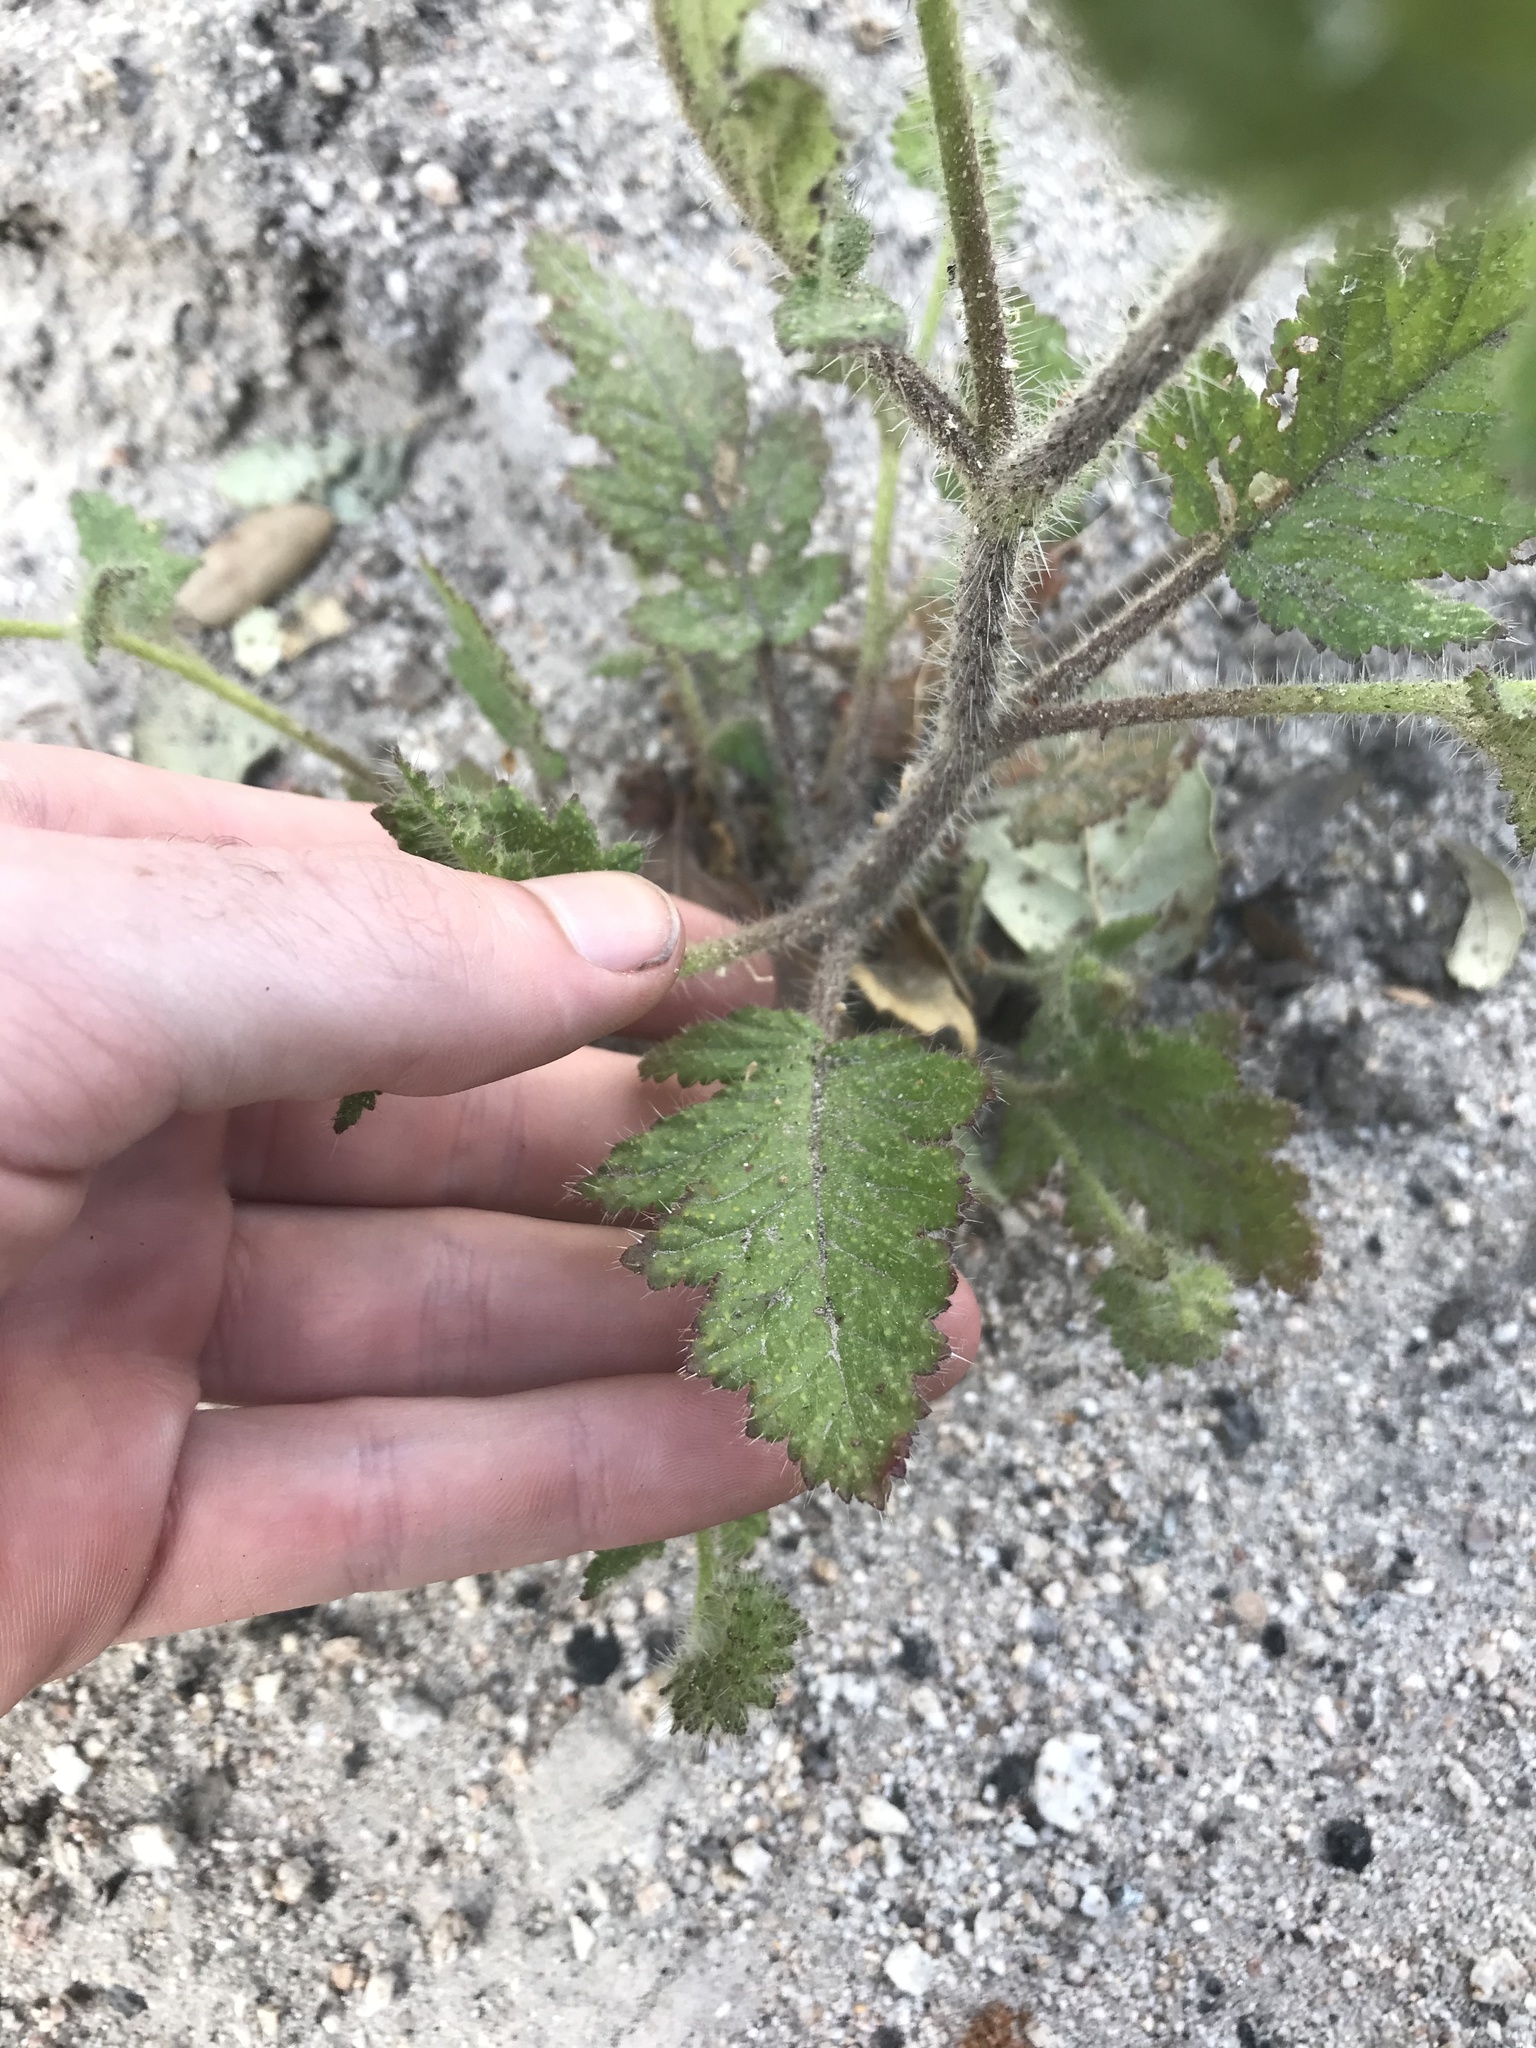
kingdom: Plantae
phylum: Tracheophyta
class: Magnoliopsida
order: Boraginales
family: Hydrophyllaceae
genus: Phacelia
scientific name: Phacelia malvifolia
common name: Mallow-leaf phacelia
